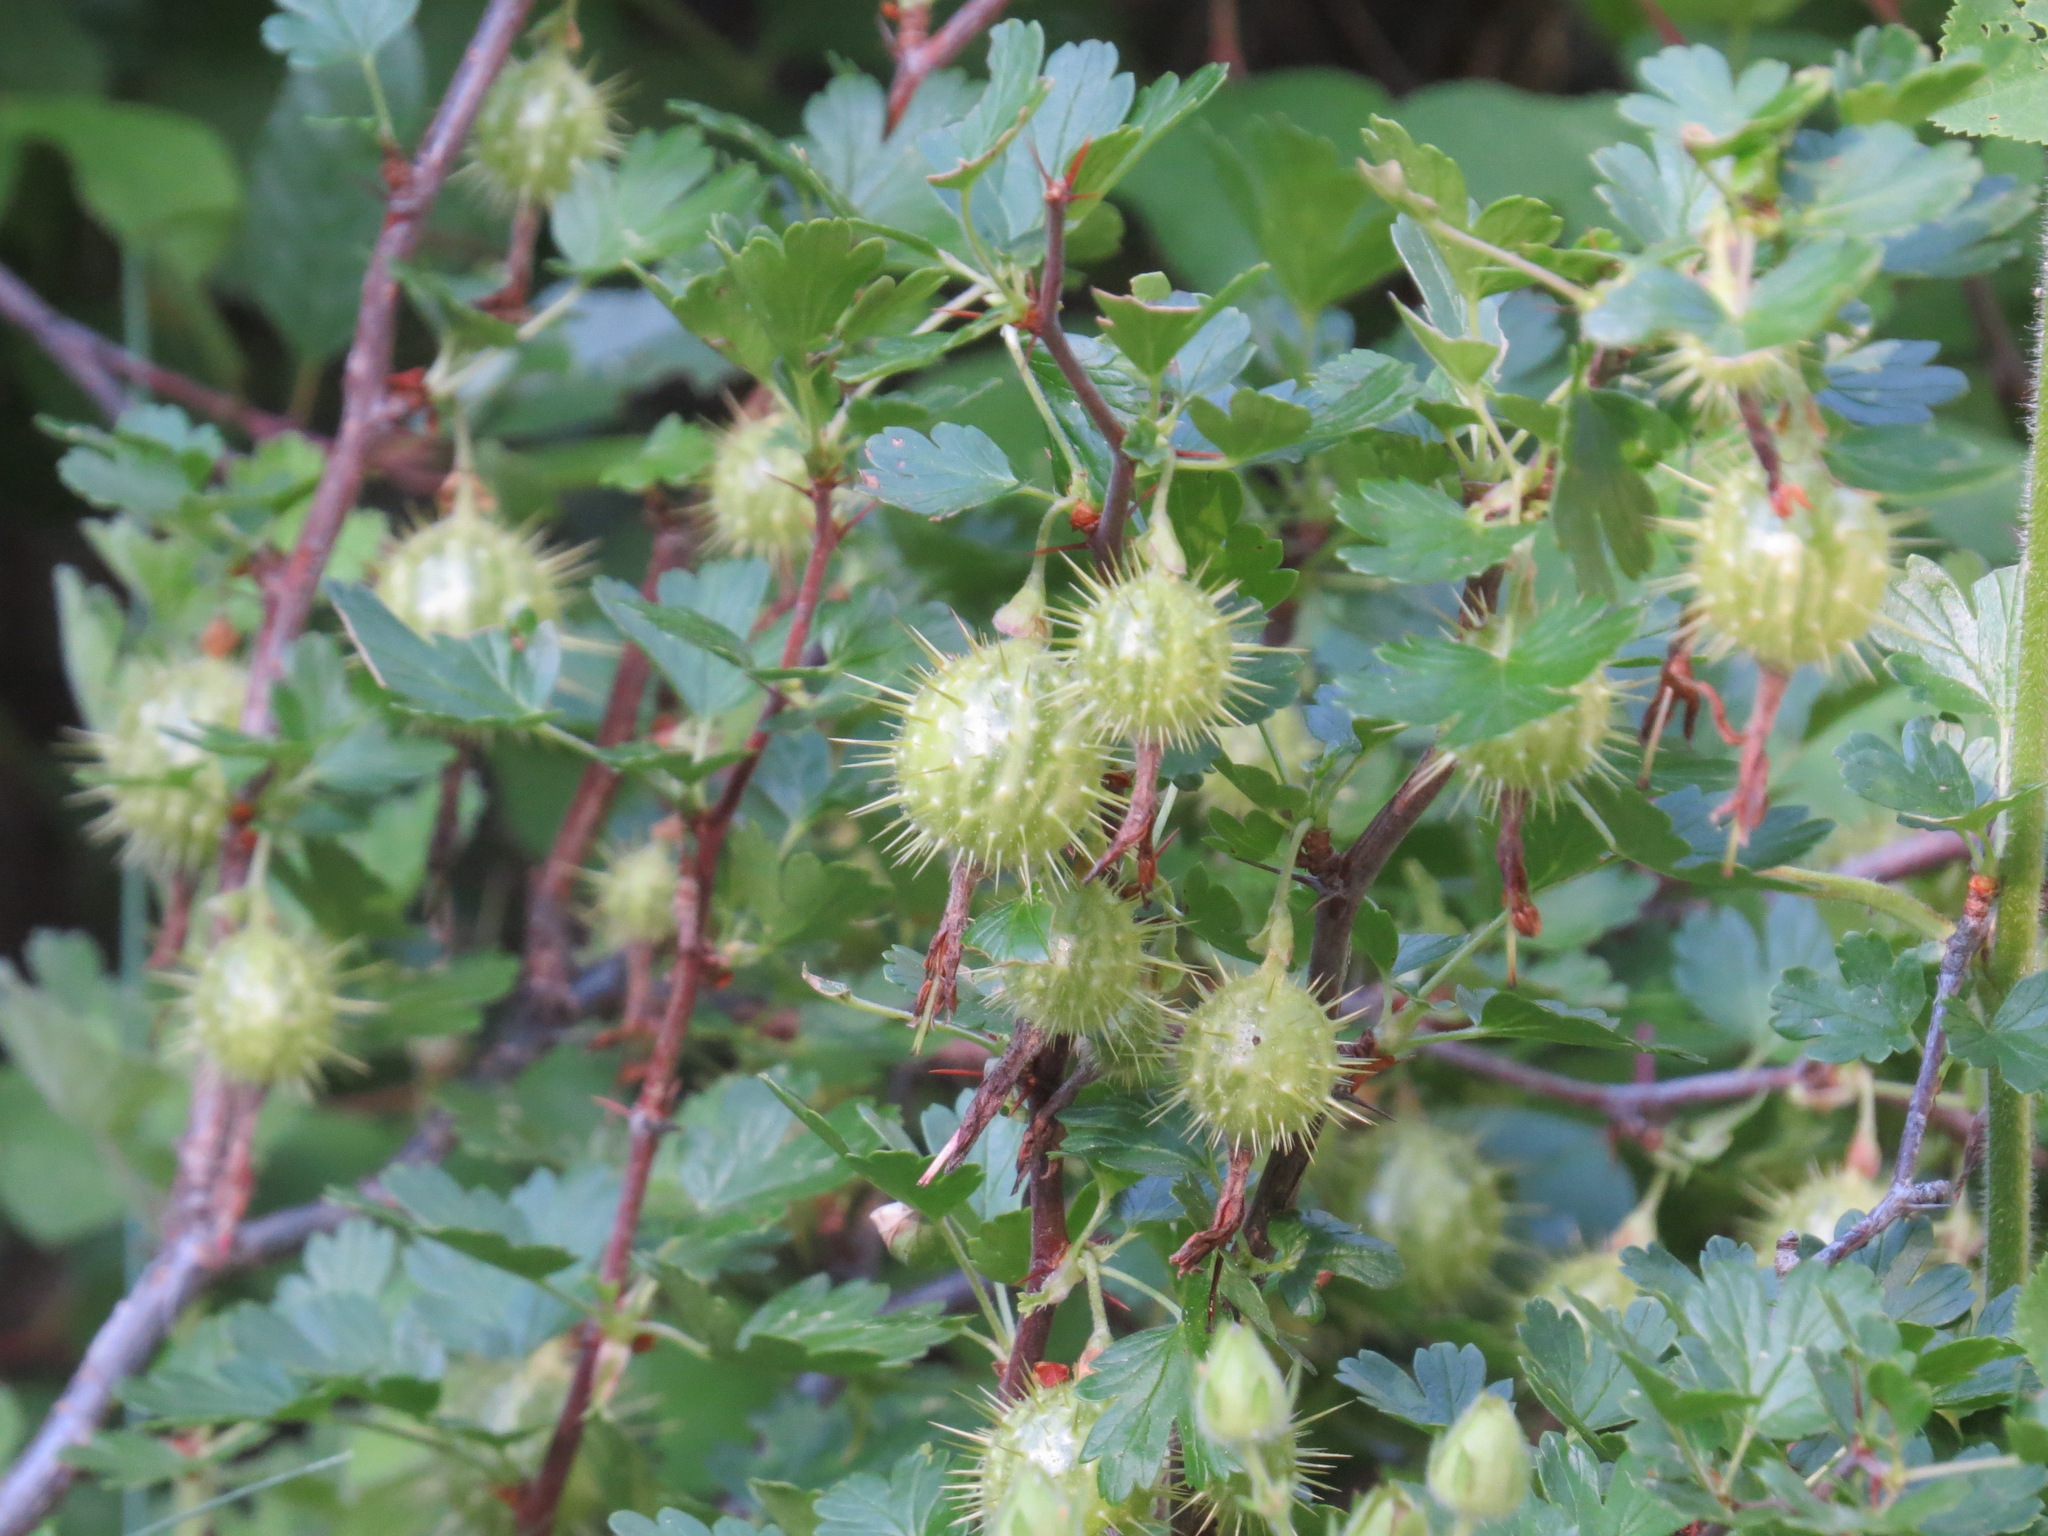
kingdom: Plantae
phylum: Tracheophyta
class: Magnoliopsida
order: Saxifragales
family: Grossulariaceae
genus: Ribes
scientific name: Ribes roezlii
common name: Sierra gooseberry
